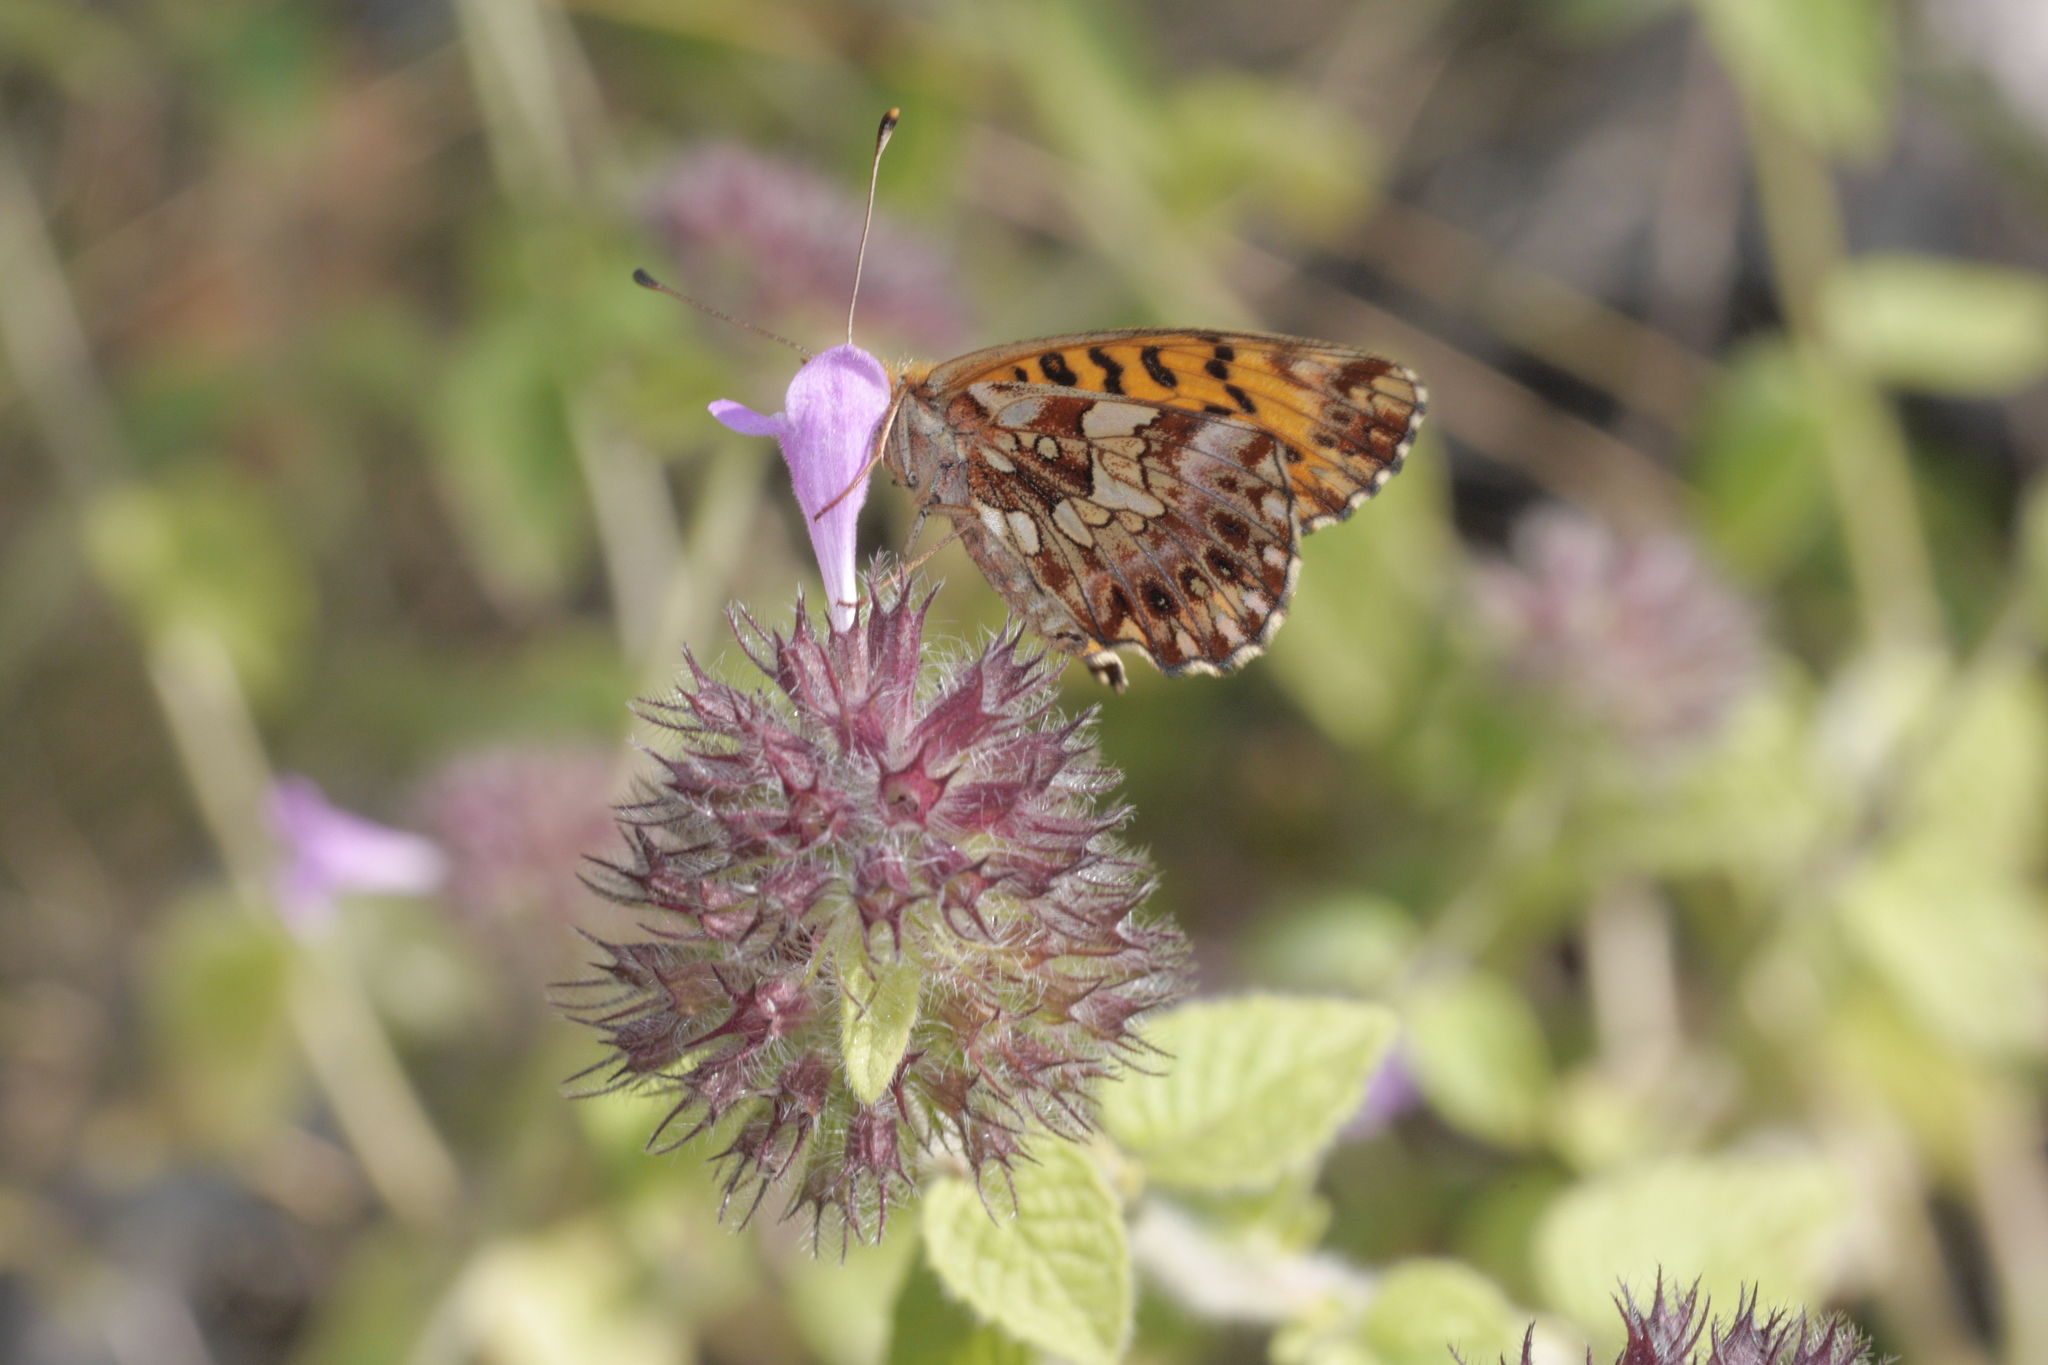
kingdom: Animalia
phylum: Arthropoda
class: Insecta
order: Lepidoptera
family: Nymphalidae
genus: Boloria
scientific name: Boloria dia
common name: Weaver's fritillary
